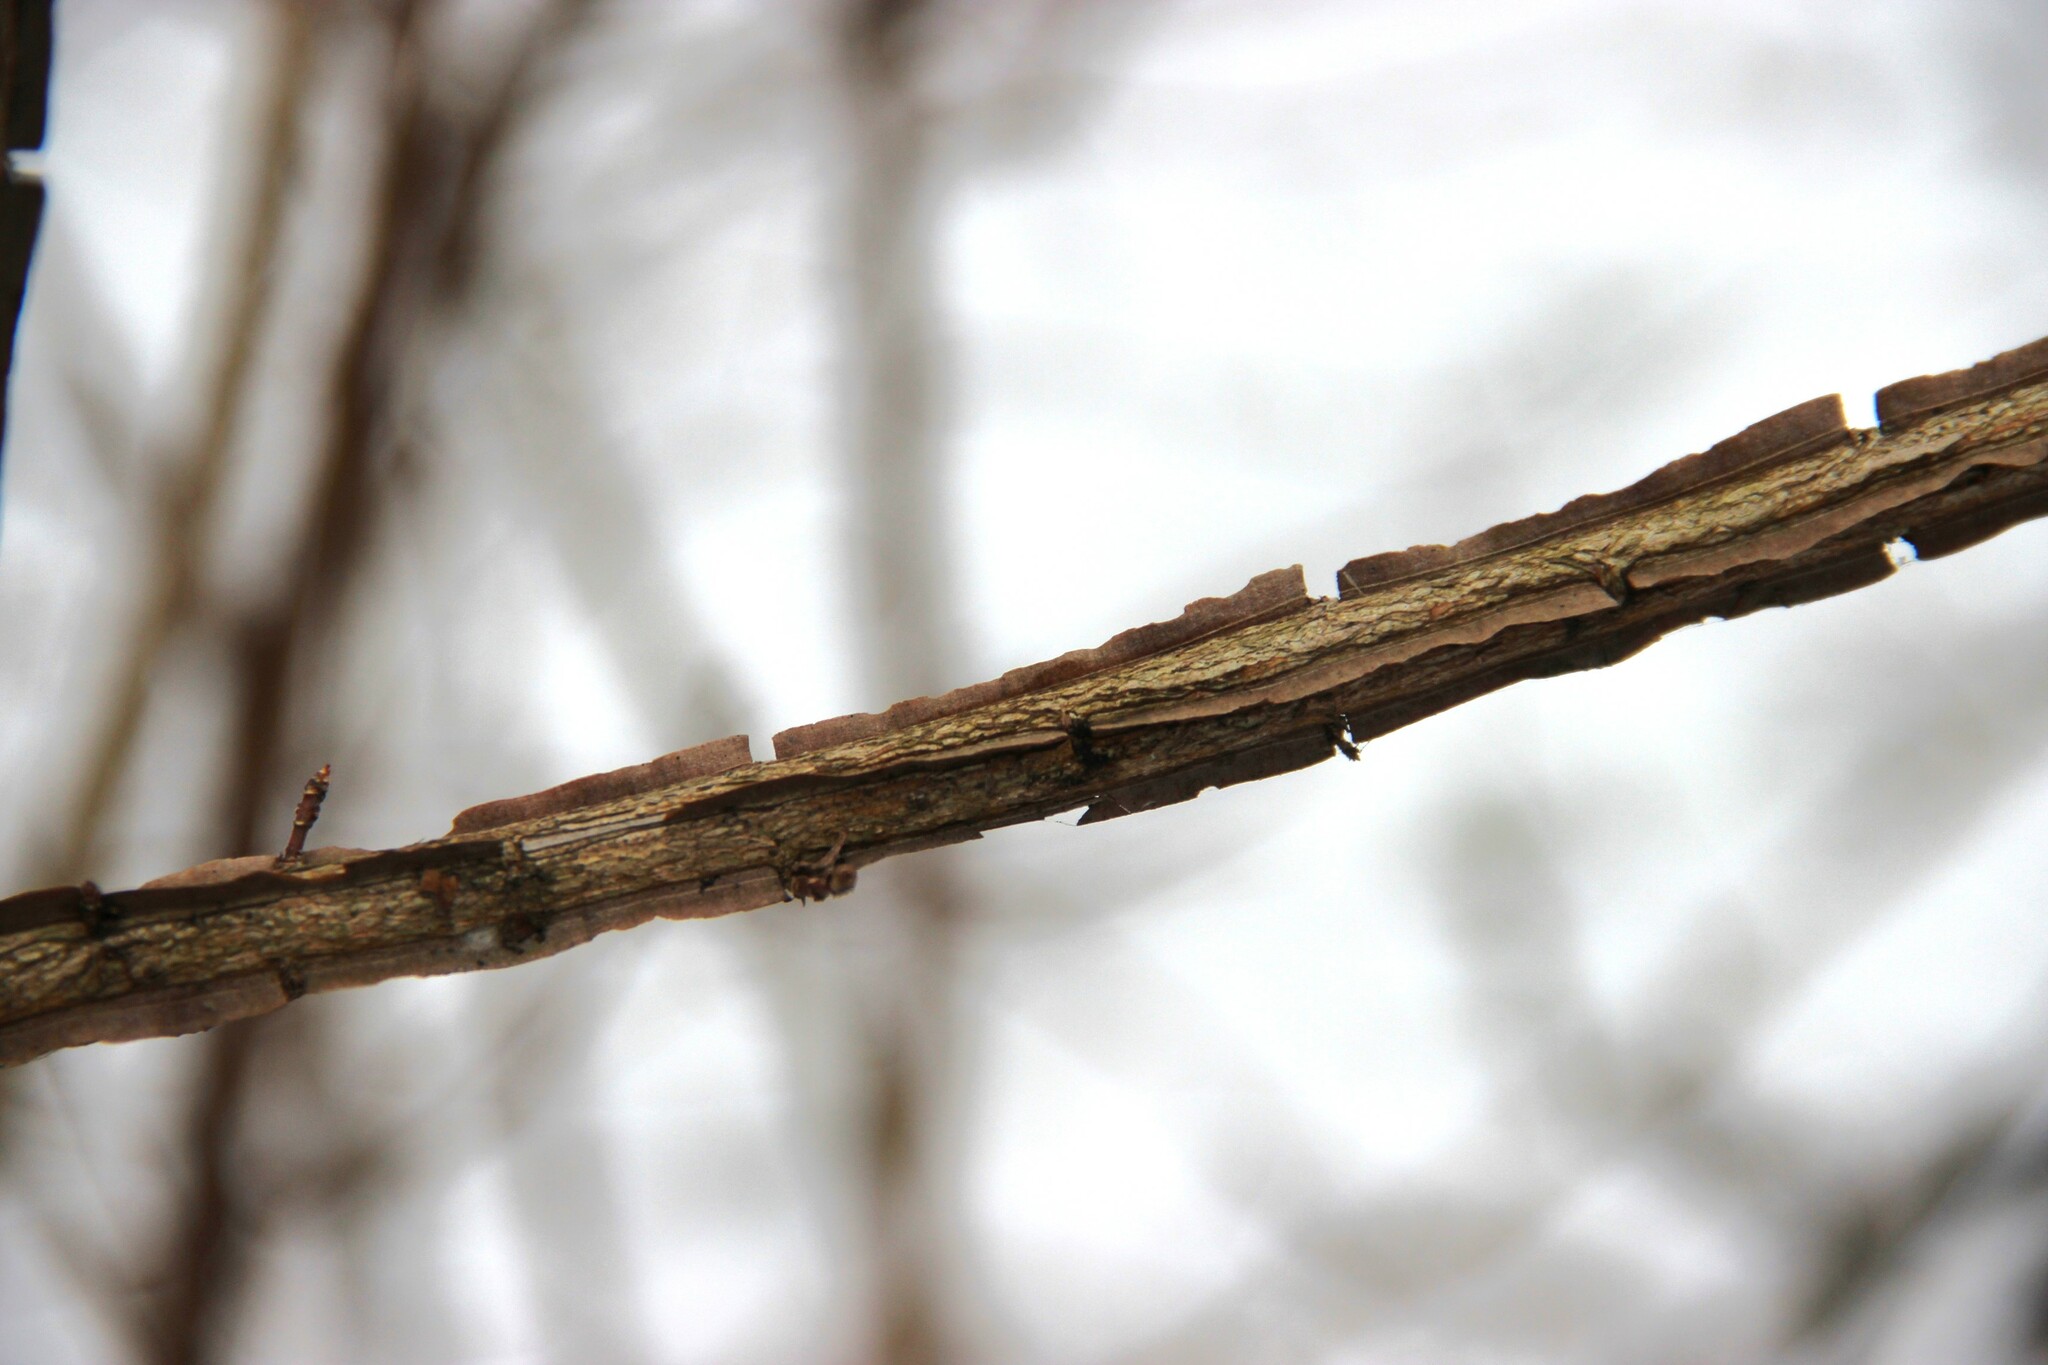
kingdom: Plantae
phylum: Tracheophyta
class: Magnoliopsida
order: Rosales
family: Ulmaceae
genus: Ulmus
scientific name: Ulmus minor
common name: Small-leaved elm
